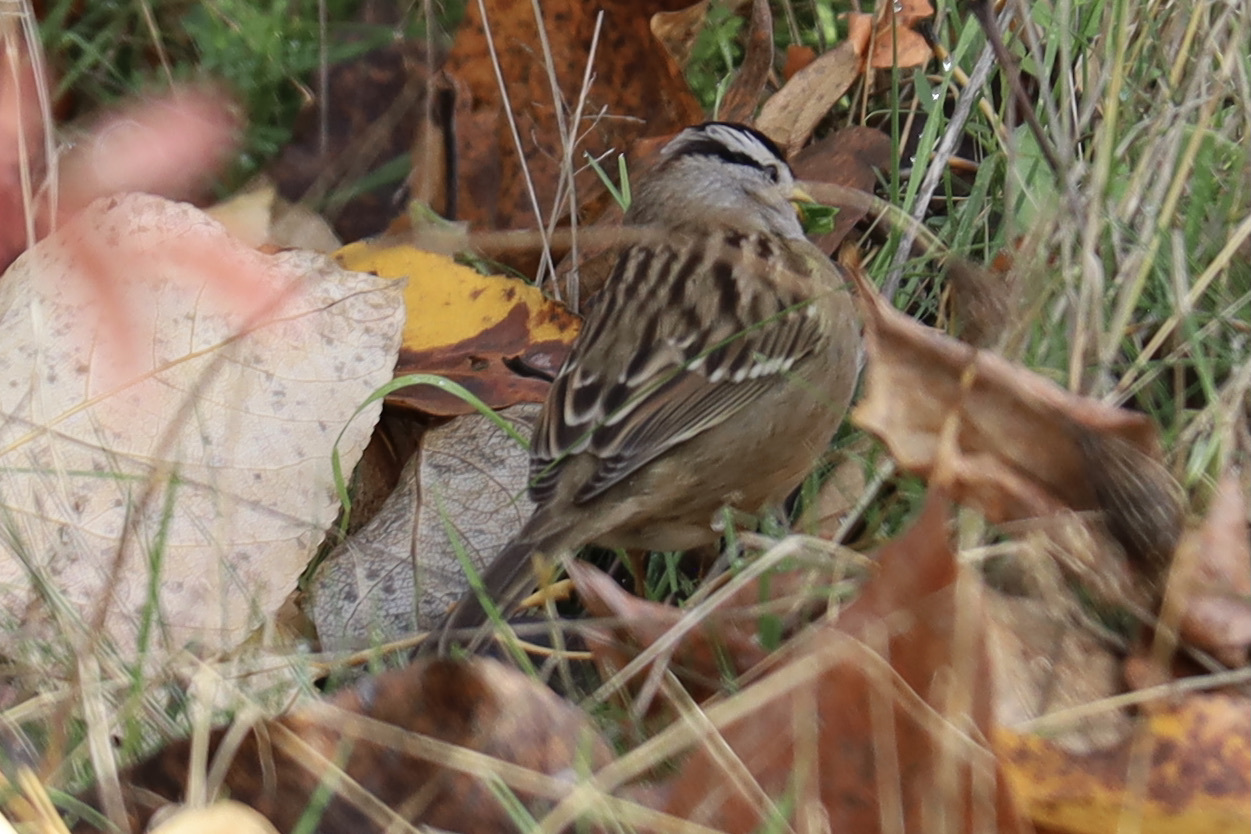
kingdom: Animalia
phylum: Chordata
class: Aves
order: Passeriformes
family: Passerellidae
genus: Zonotrichia
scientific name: Zonotrichia leucophrys
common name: White-crowned sparrow
